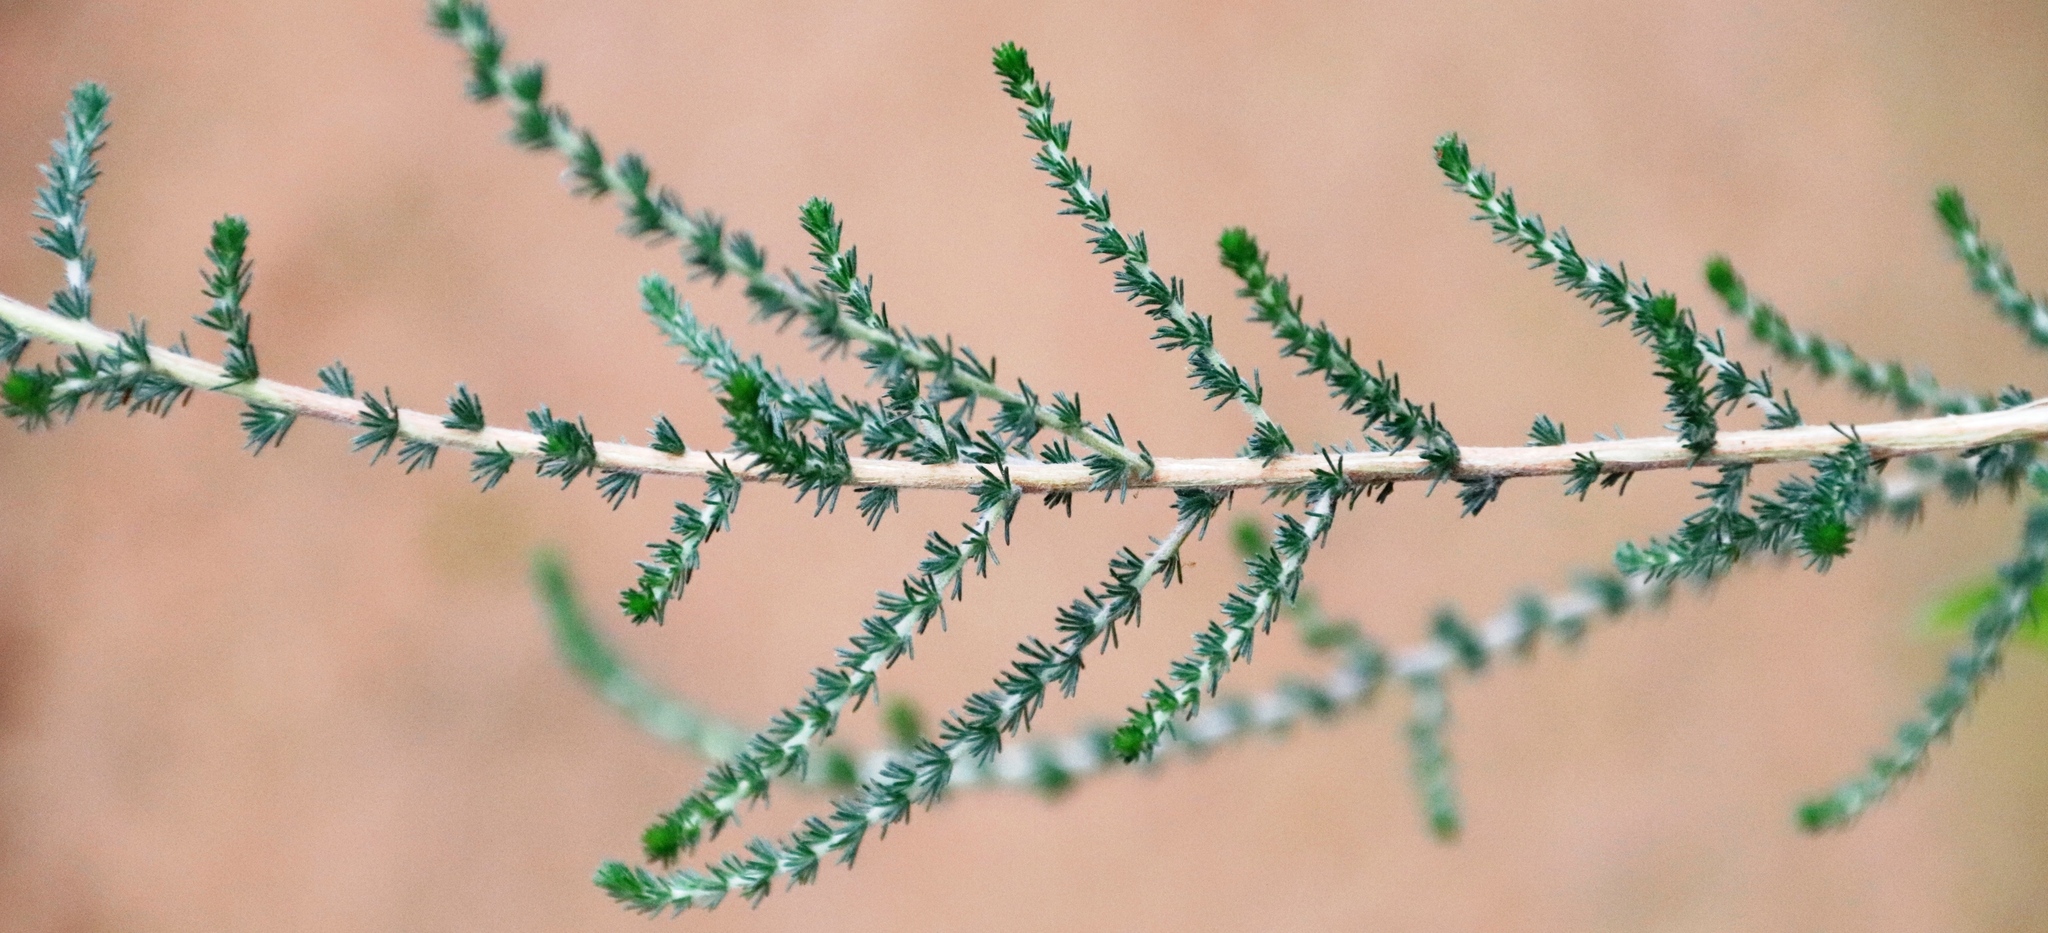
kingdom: Plantae
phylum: Tracheophyta
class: Magnoliopsida
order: Fabales
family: Fabaceae
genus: Aspalathus
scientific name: Aspalathus hispida
